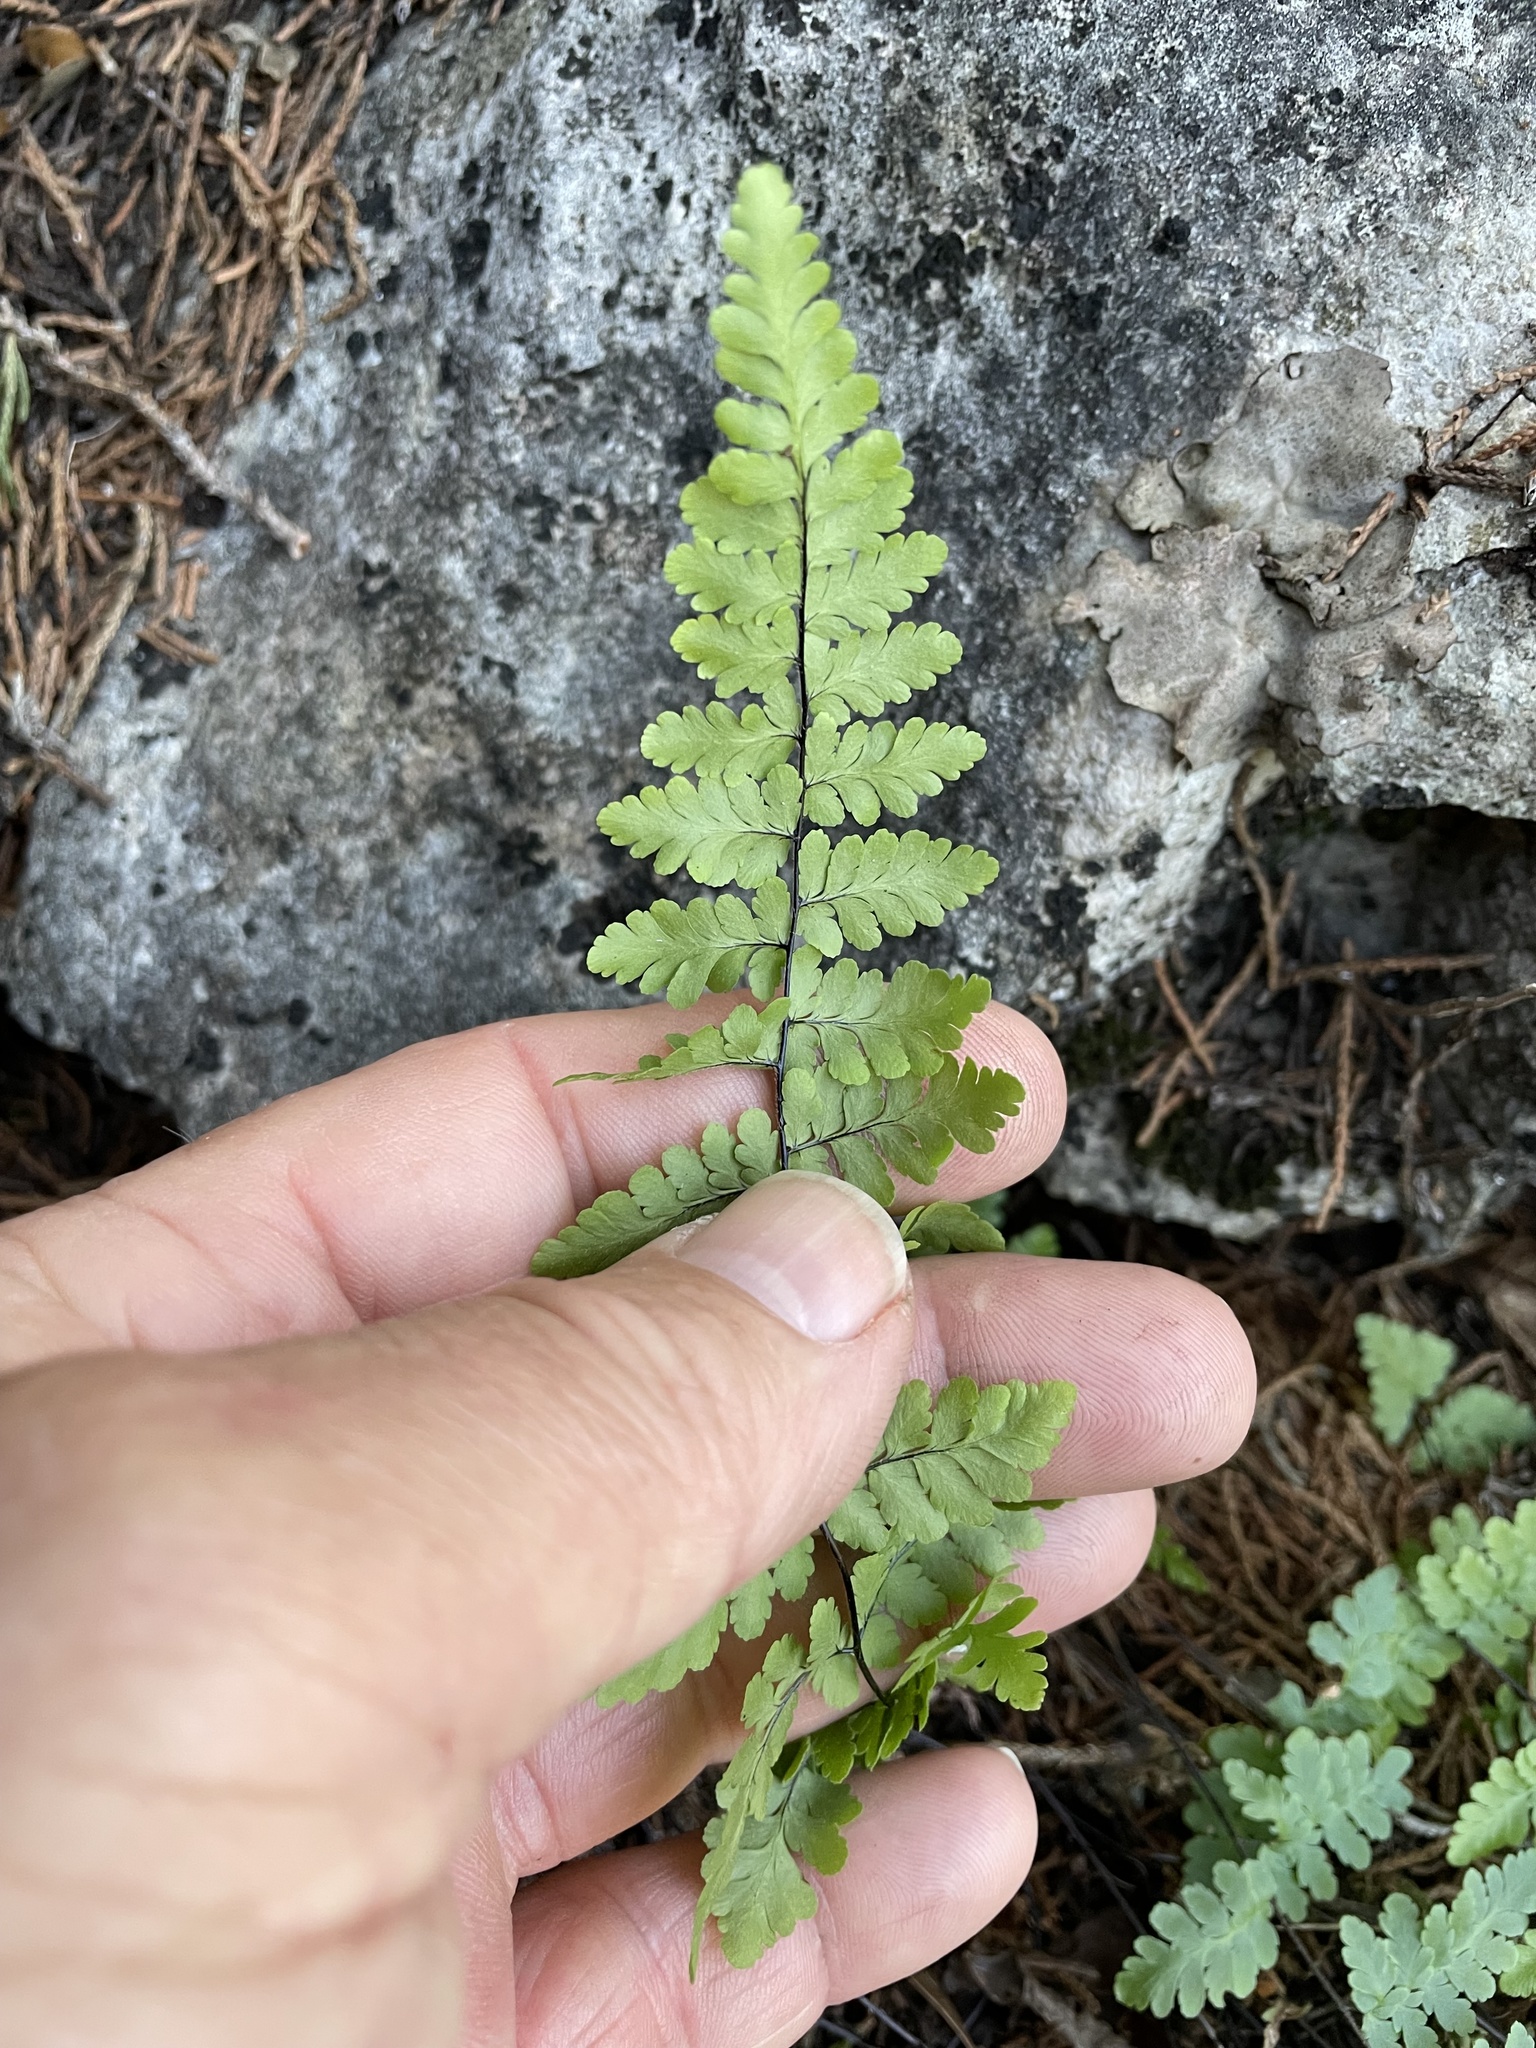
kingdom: Plantae
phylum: Tracheophyta
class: Polypodiopsida
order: Polypodiales
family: Pteridaceae
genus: Myriopteris
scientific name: Myriopteris alabamensis
